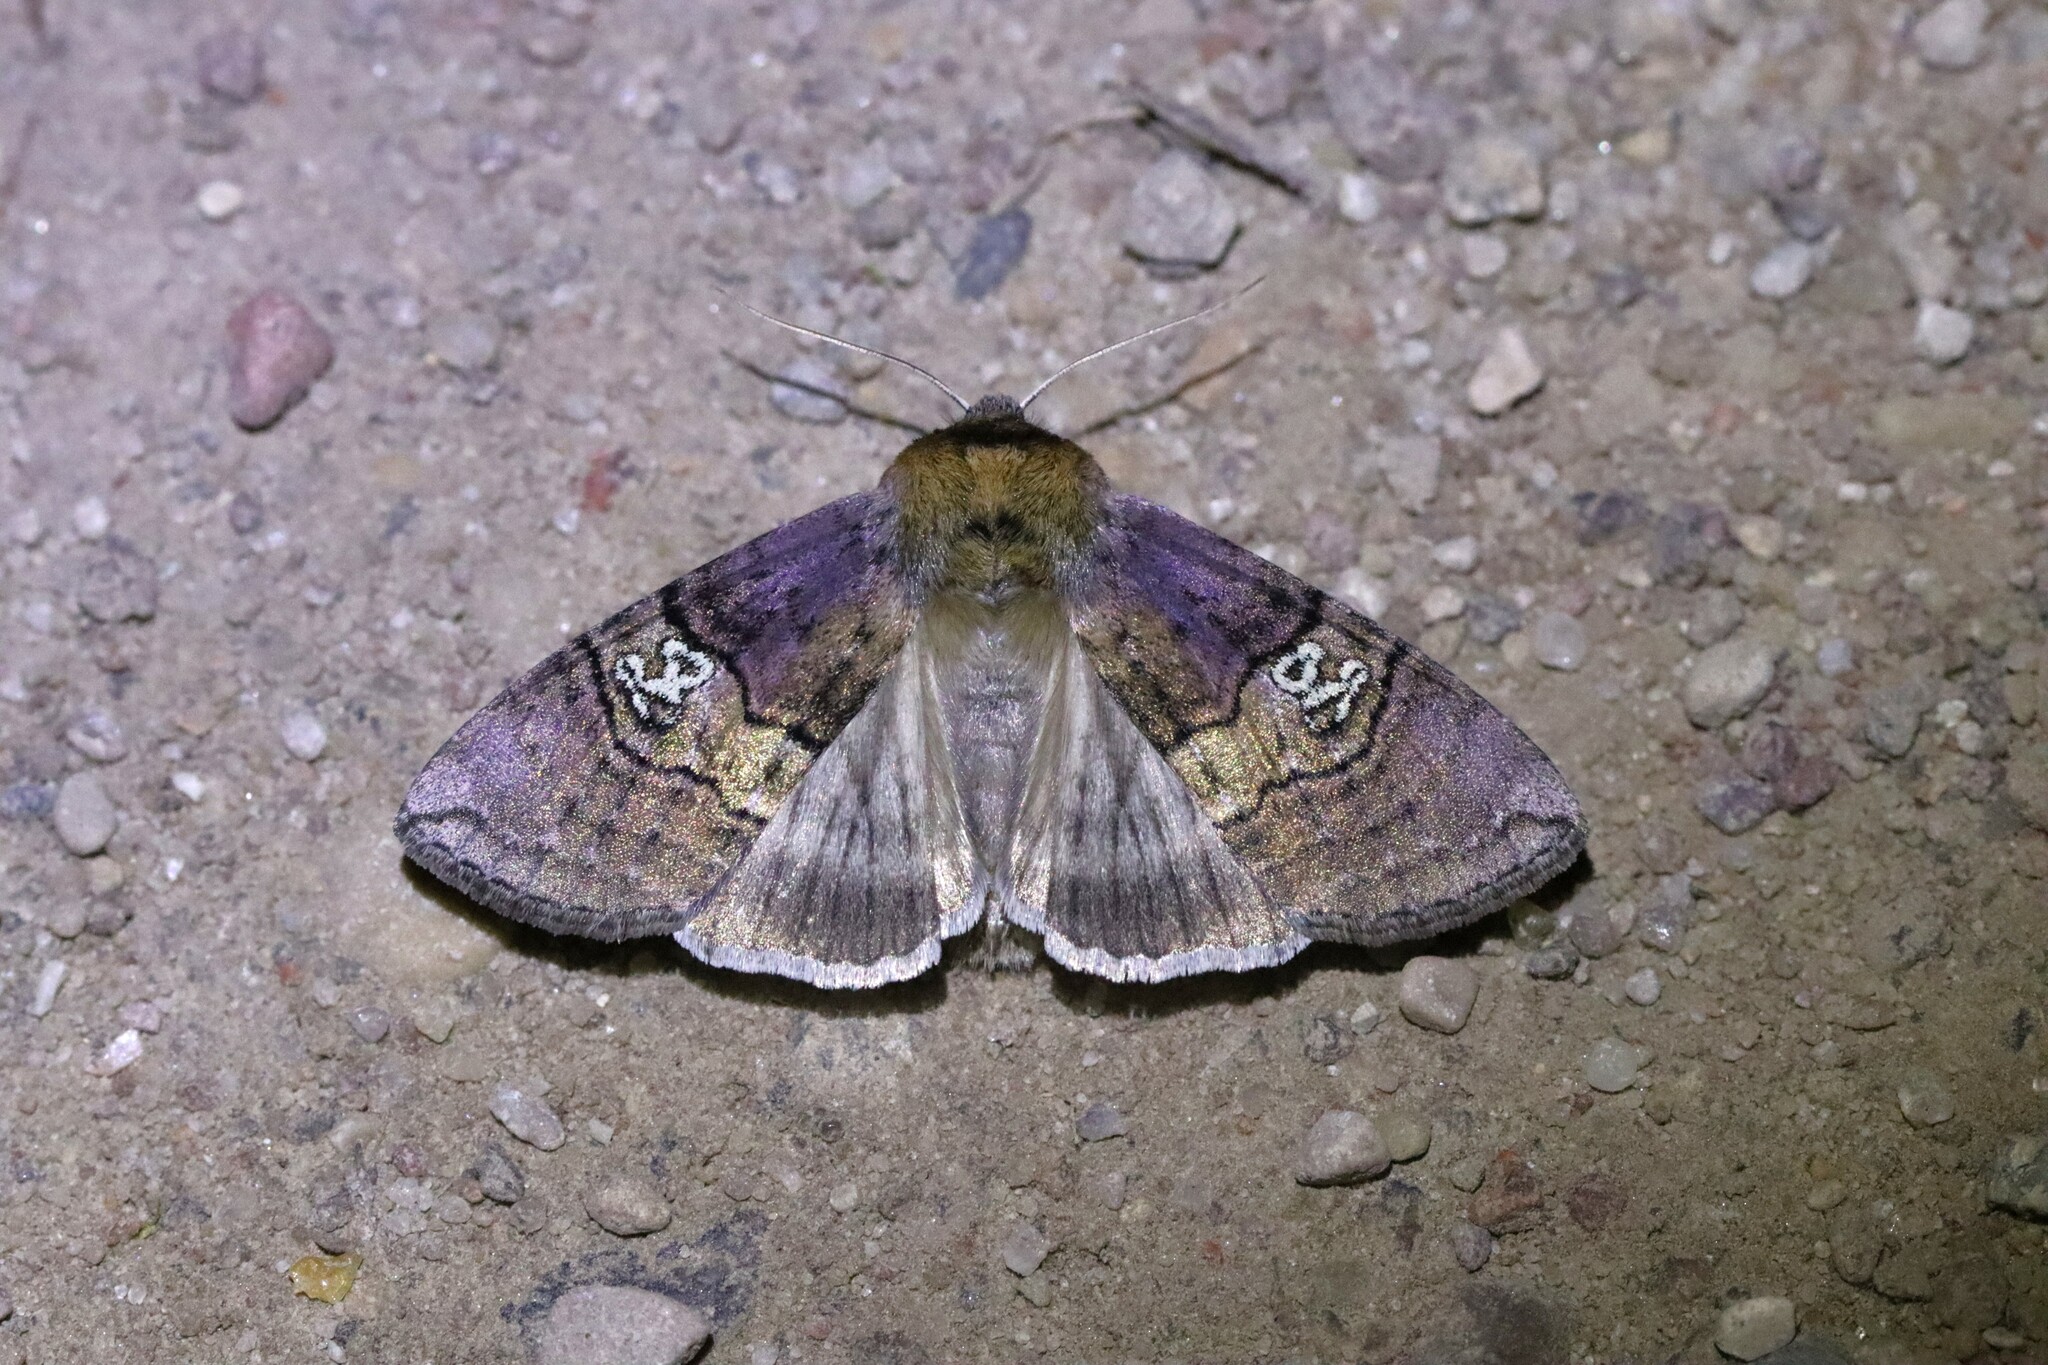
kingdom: Animalia
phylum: Arthropoda
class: Insecta
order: Lepidoptera
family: Drepanidae
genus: Tethea
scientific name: Tethea ocularis
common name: Figure of eighty
